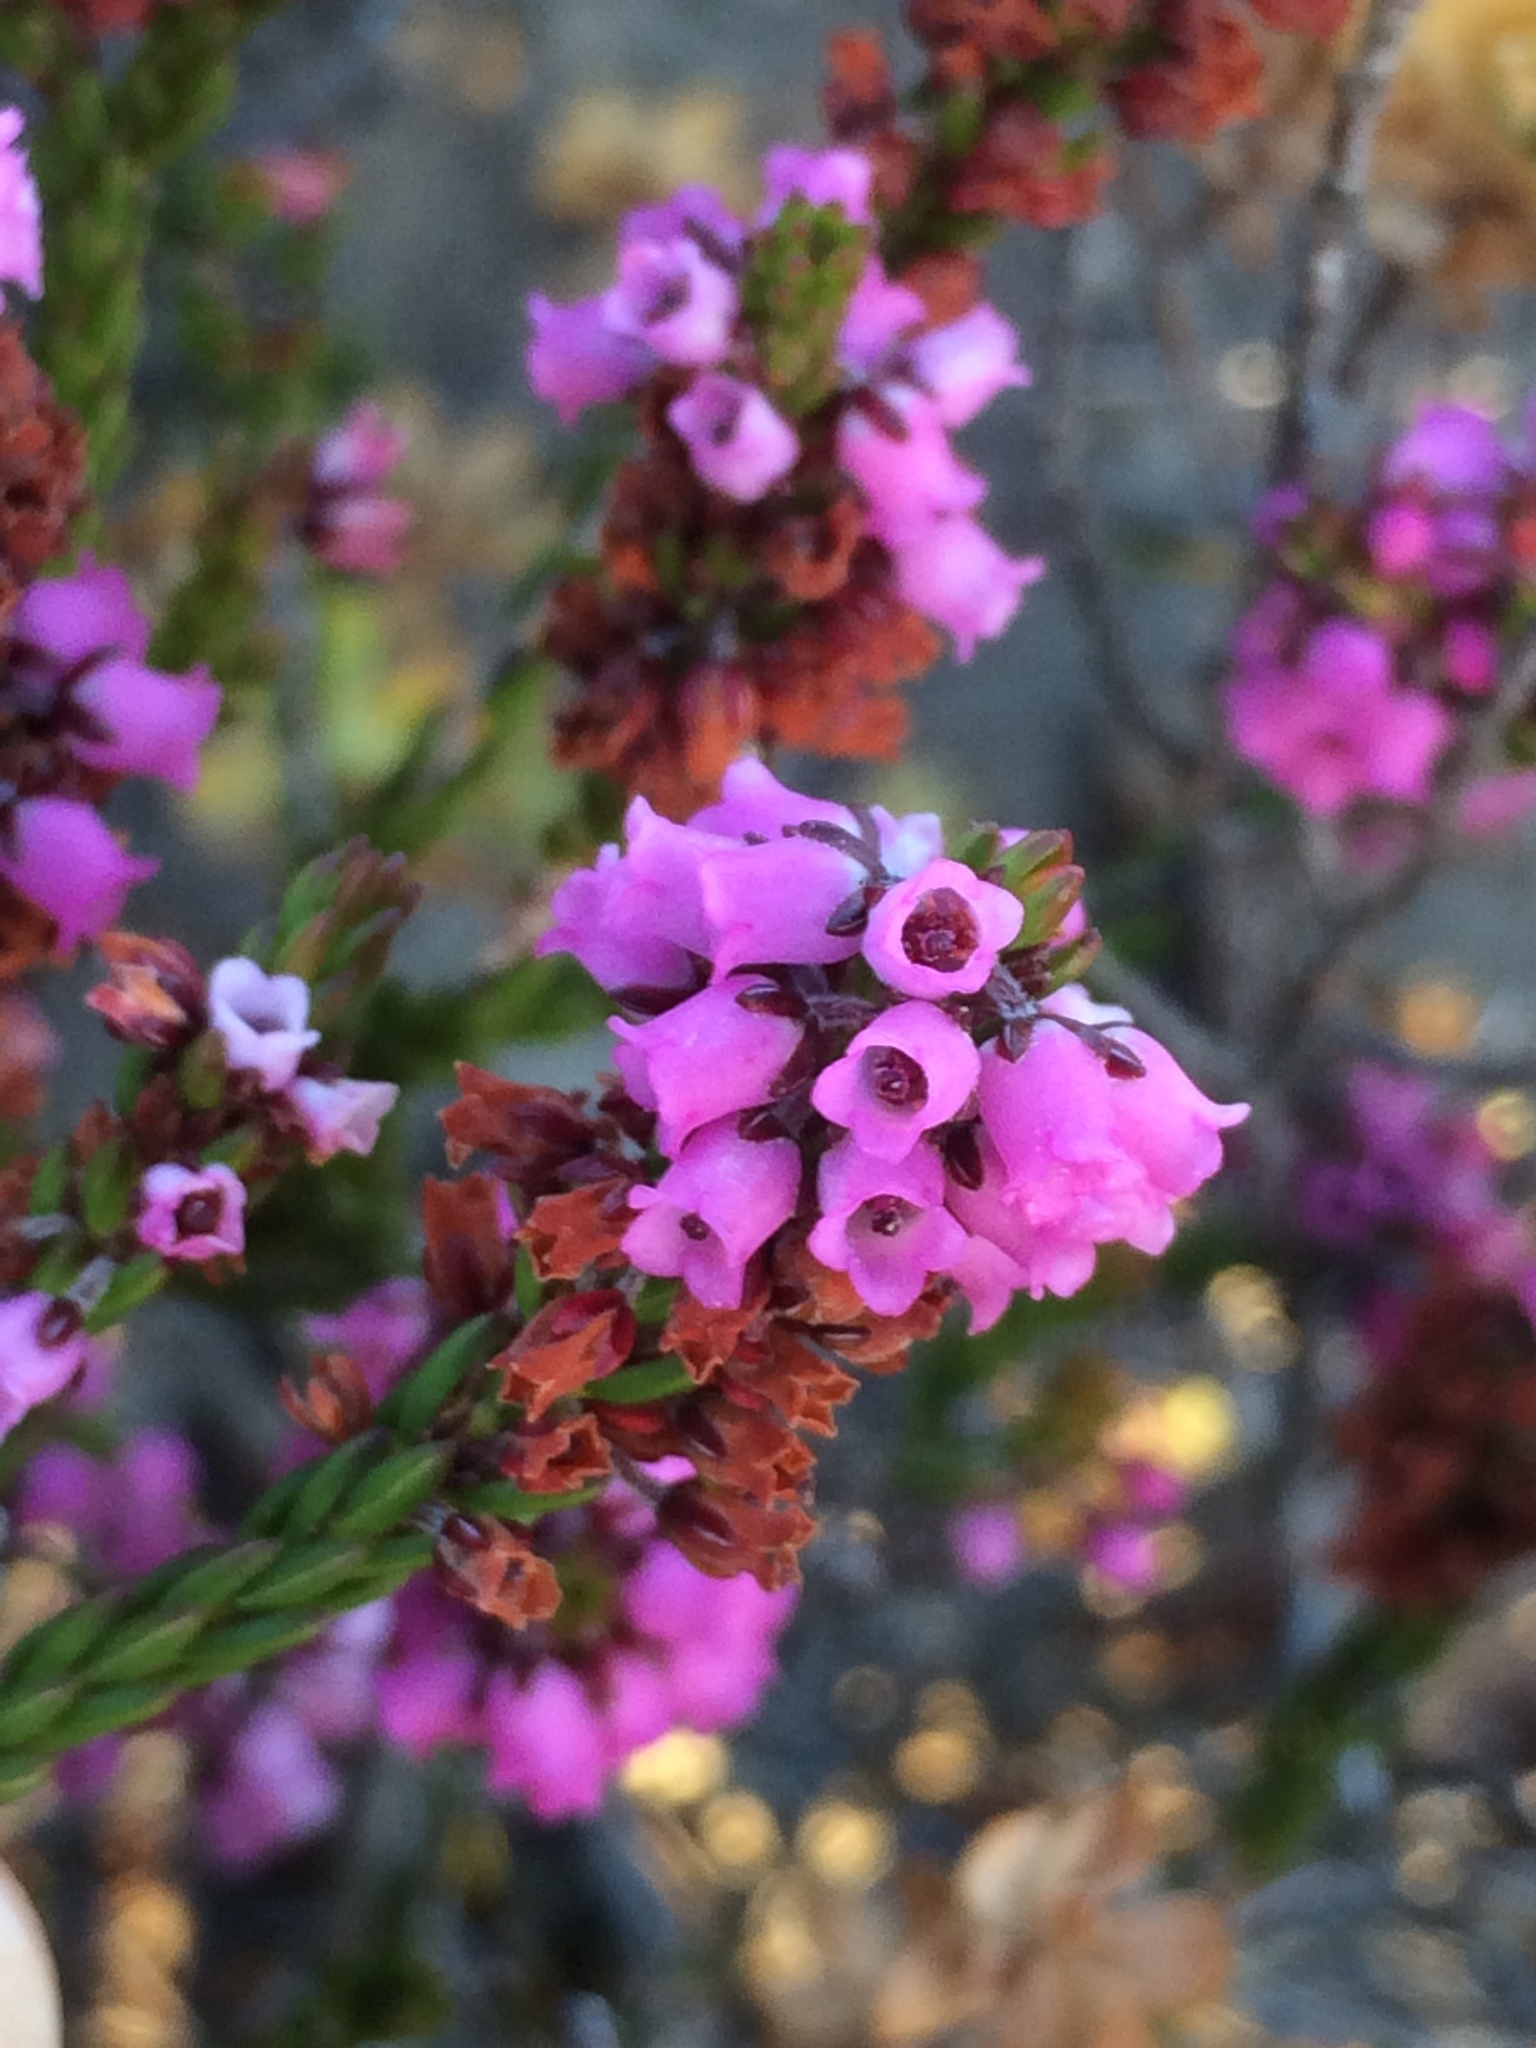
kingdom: Plantae
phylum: Tracheophyta
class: Magnoliopsida
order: Ericales
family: Ericaceae
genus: Erica
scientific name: Erica pulchella
